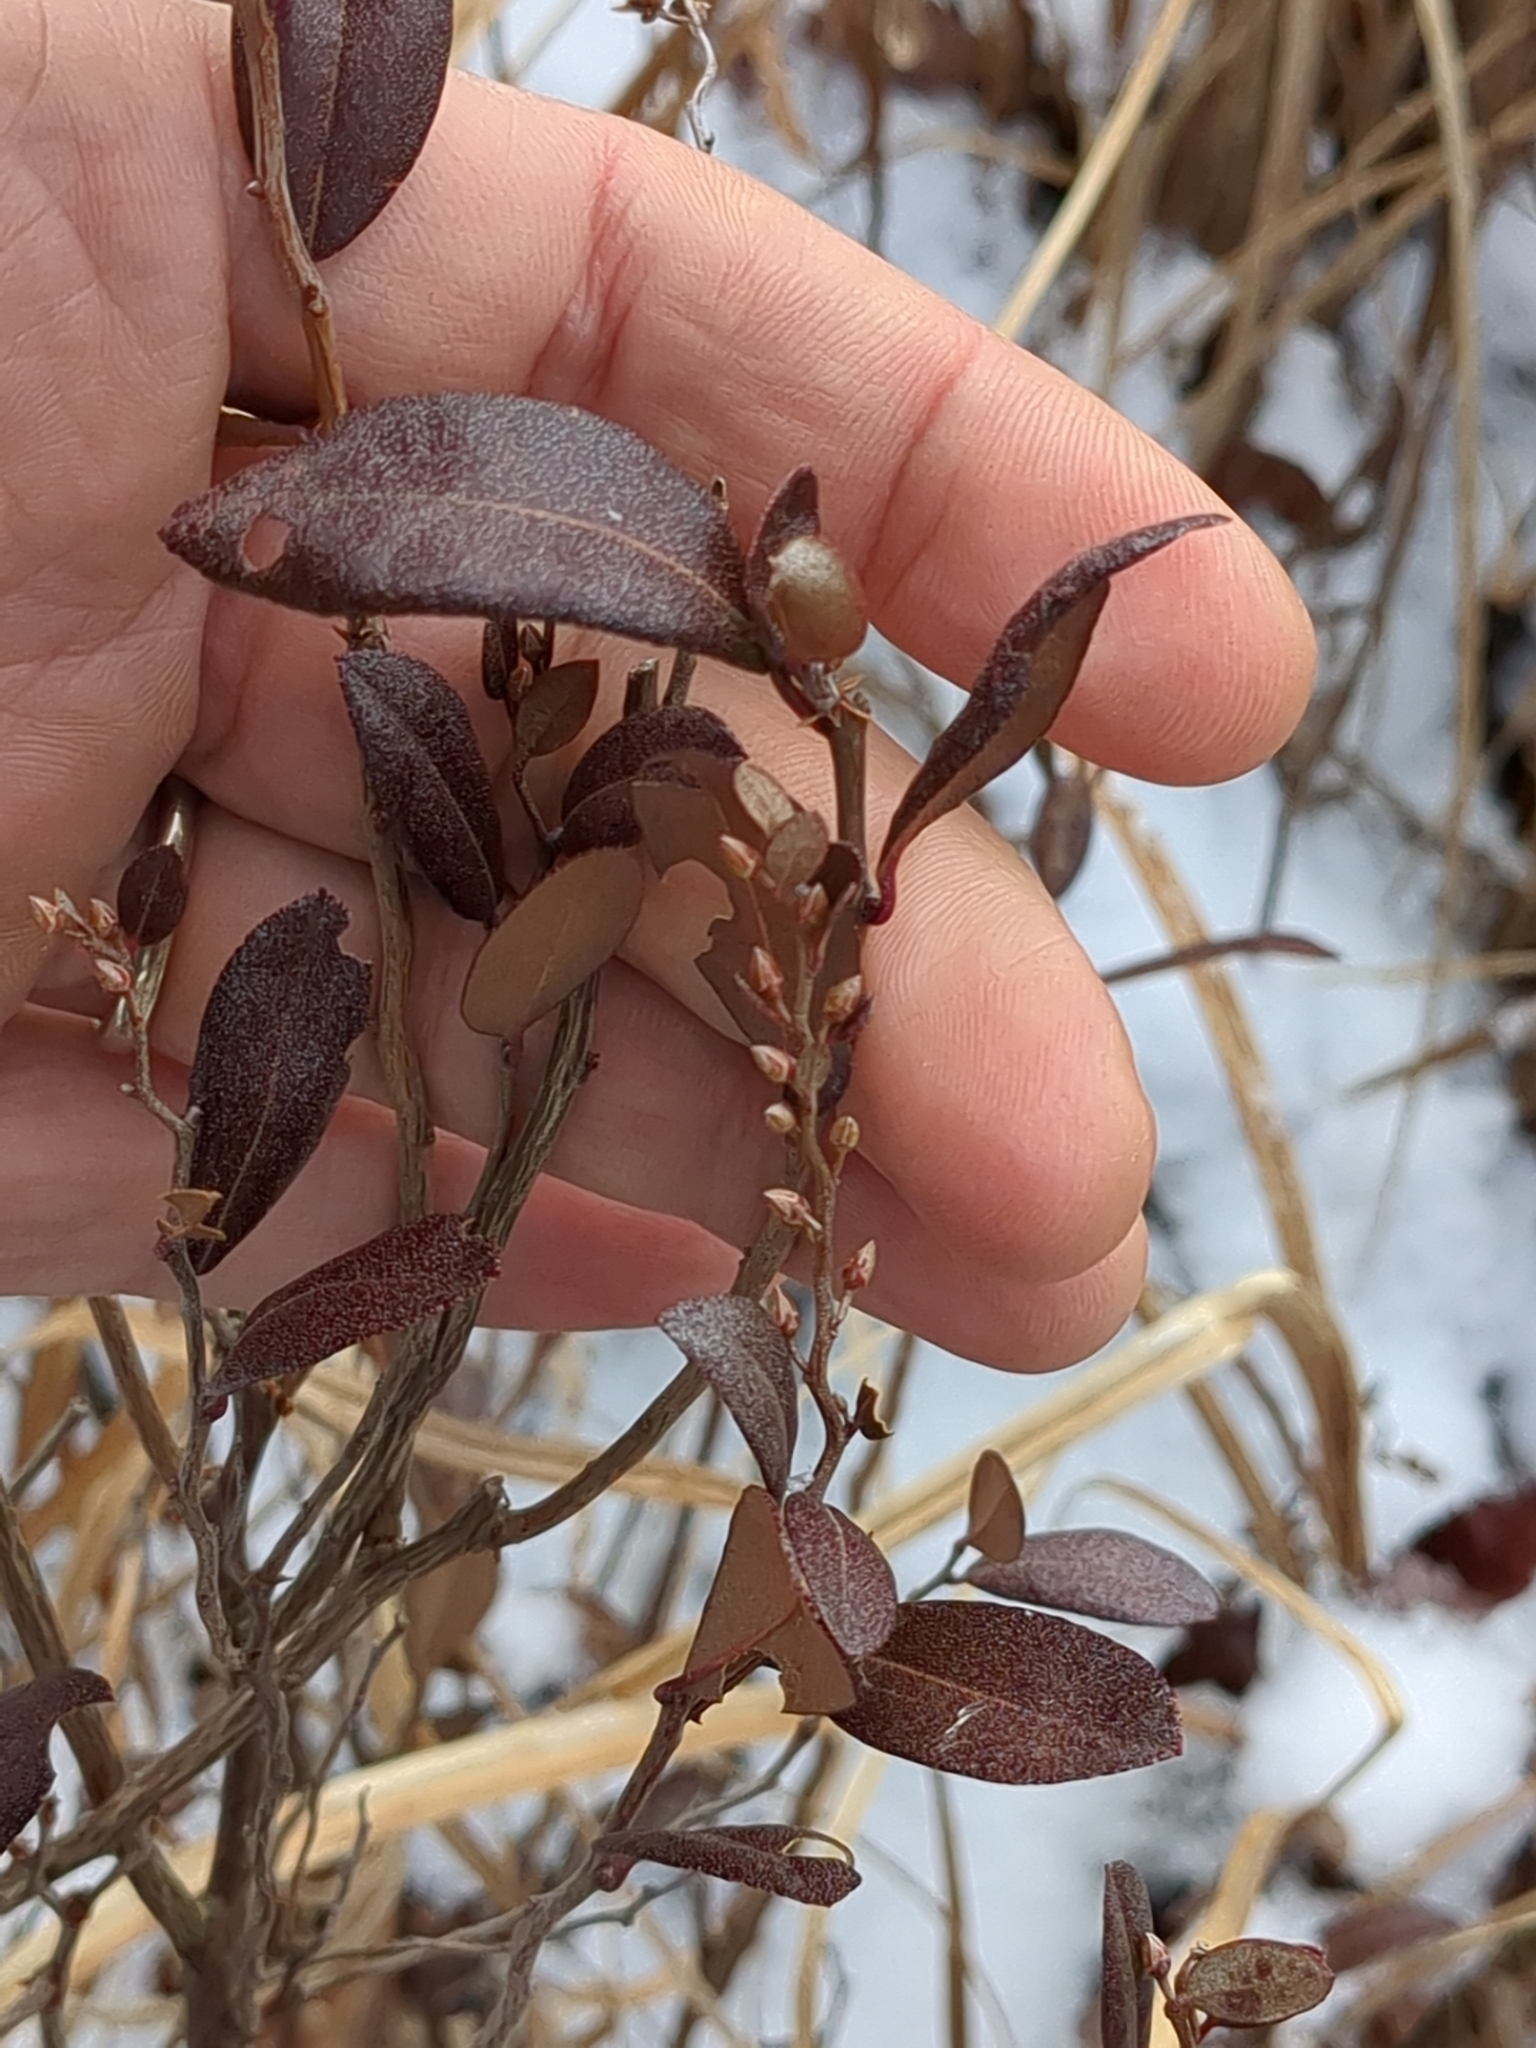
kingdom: Plantae
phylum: Tracheophyta
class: Magnoliopsida
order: Ericales
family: Ericaceae
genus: Chamaedaphne
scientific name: Chamaedaphne calyculata
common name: Leatherleaf
